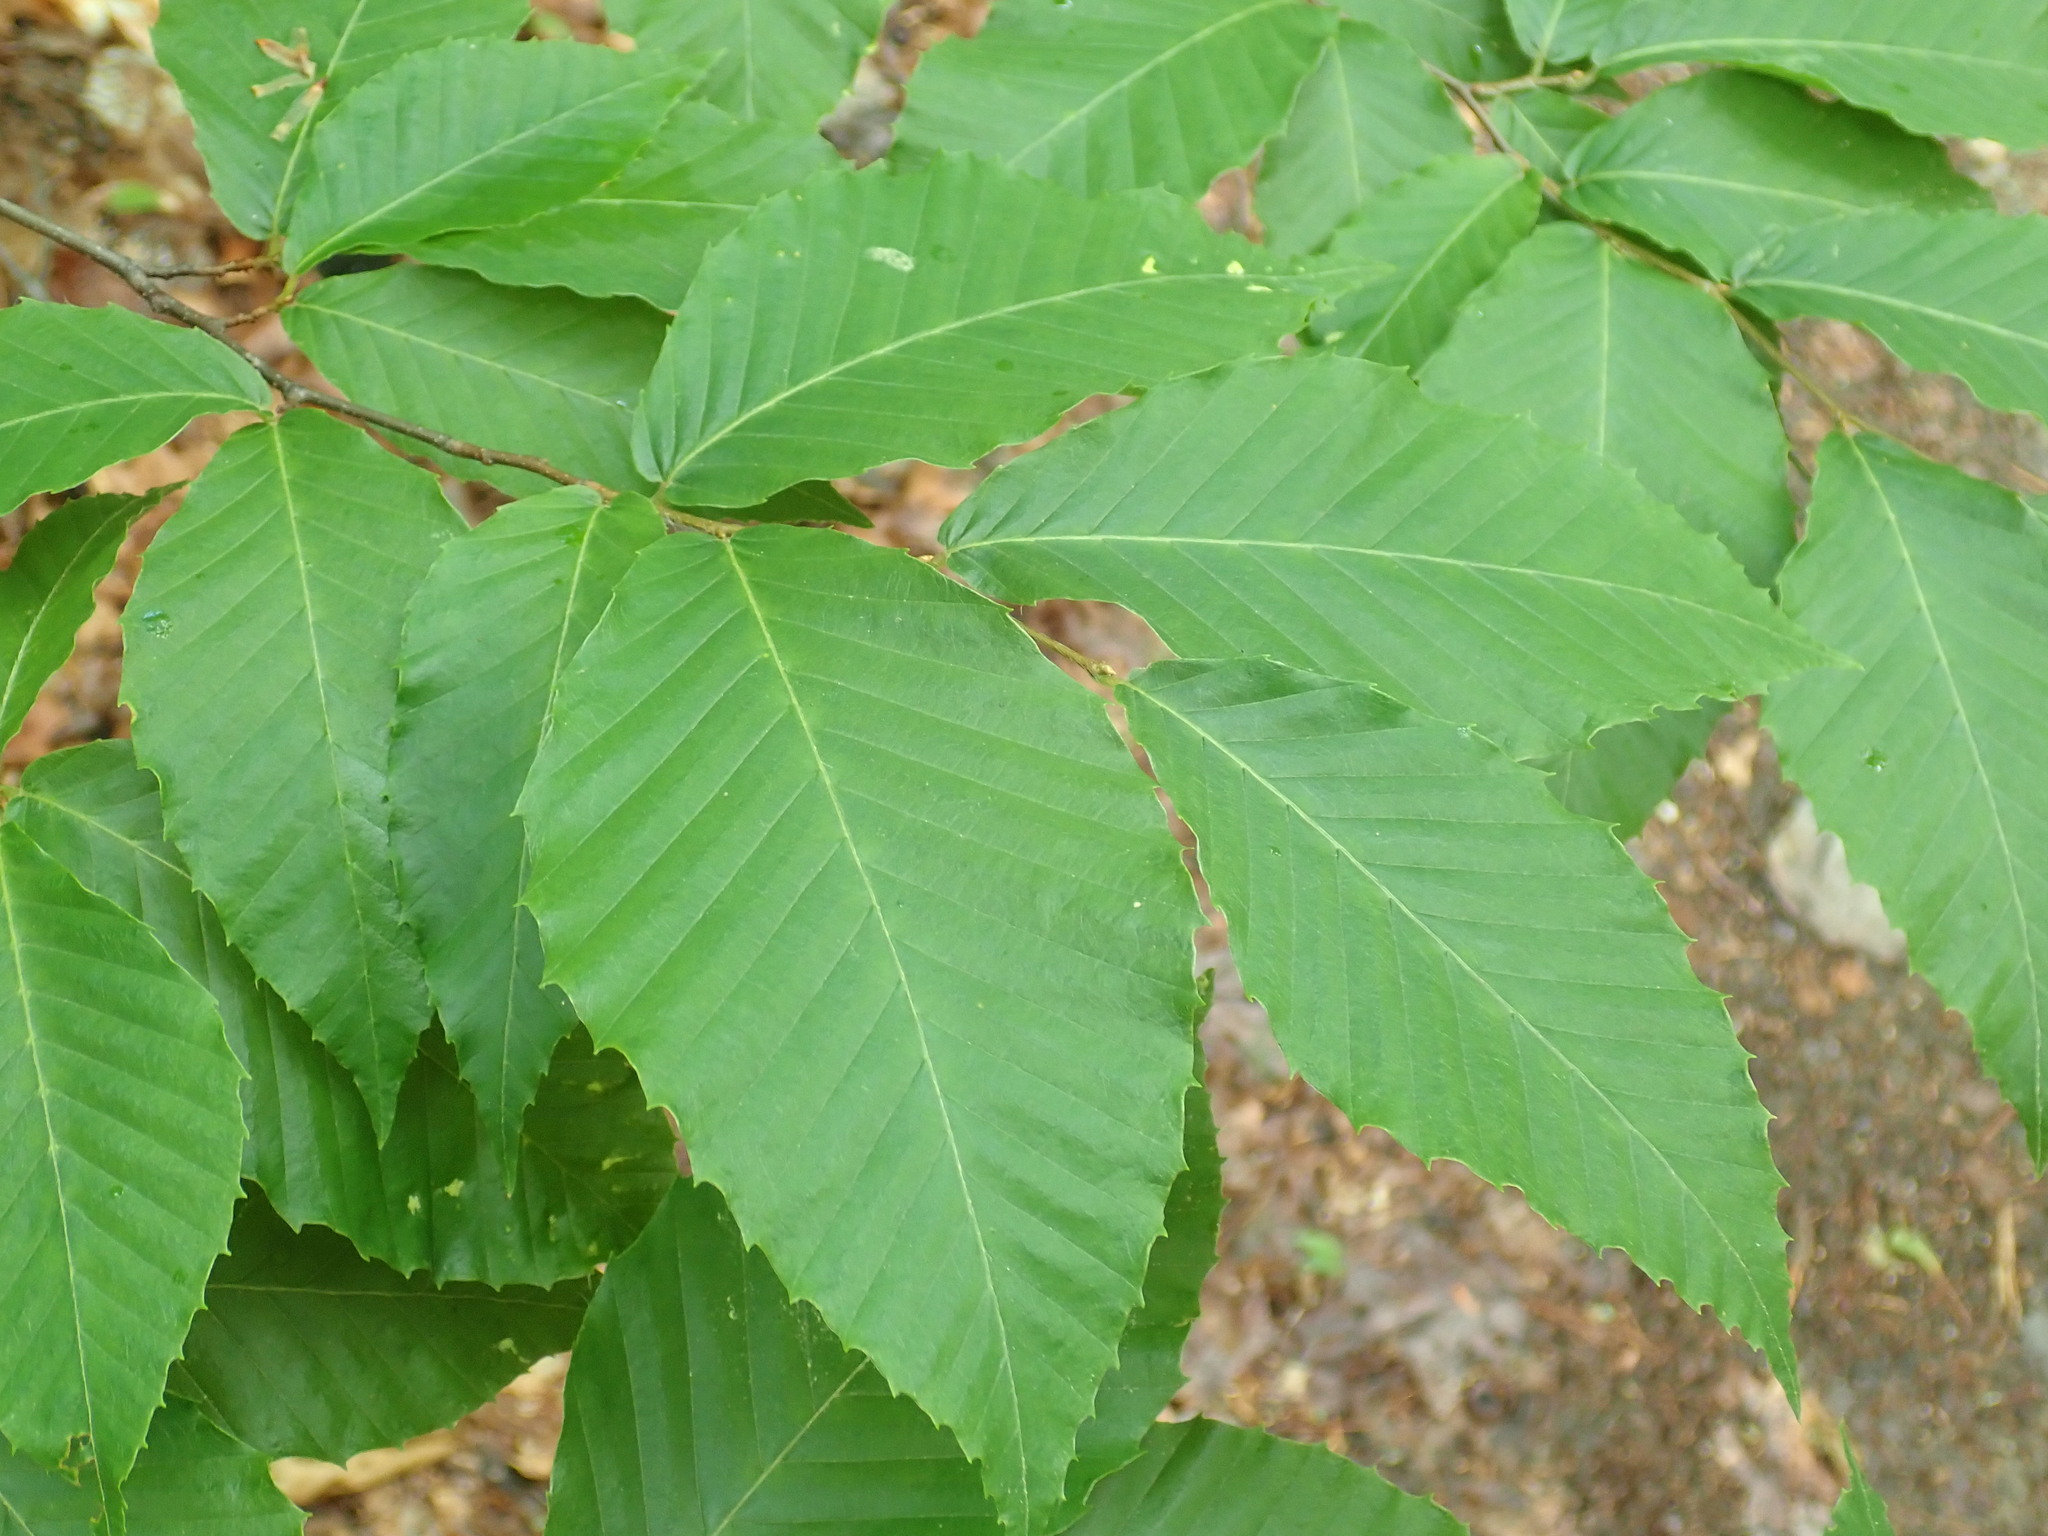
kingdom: Plantae
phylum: Tracheophyta
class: Magnoliopsida
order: Fagales
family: Fagaceae
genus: Fagus
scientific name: Fagus grandifolia
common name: American beech
